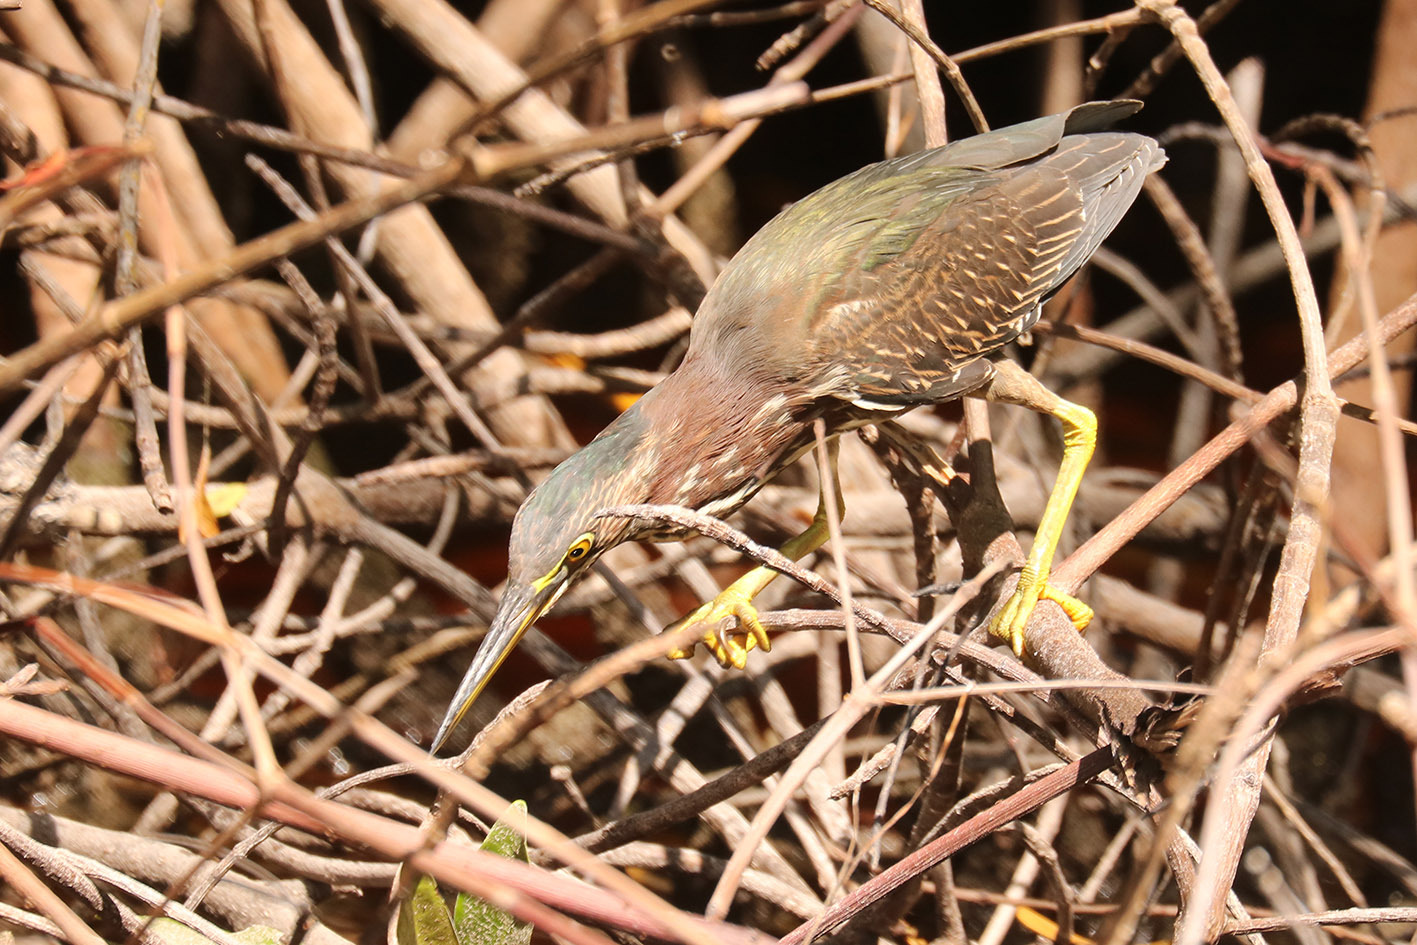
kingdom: Animalia
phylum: Chordata
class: Aves
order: Pelecaniformes
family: Ardeidae
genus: Butorides
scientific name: Butorides virescens
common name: Green heron
